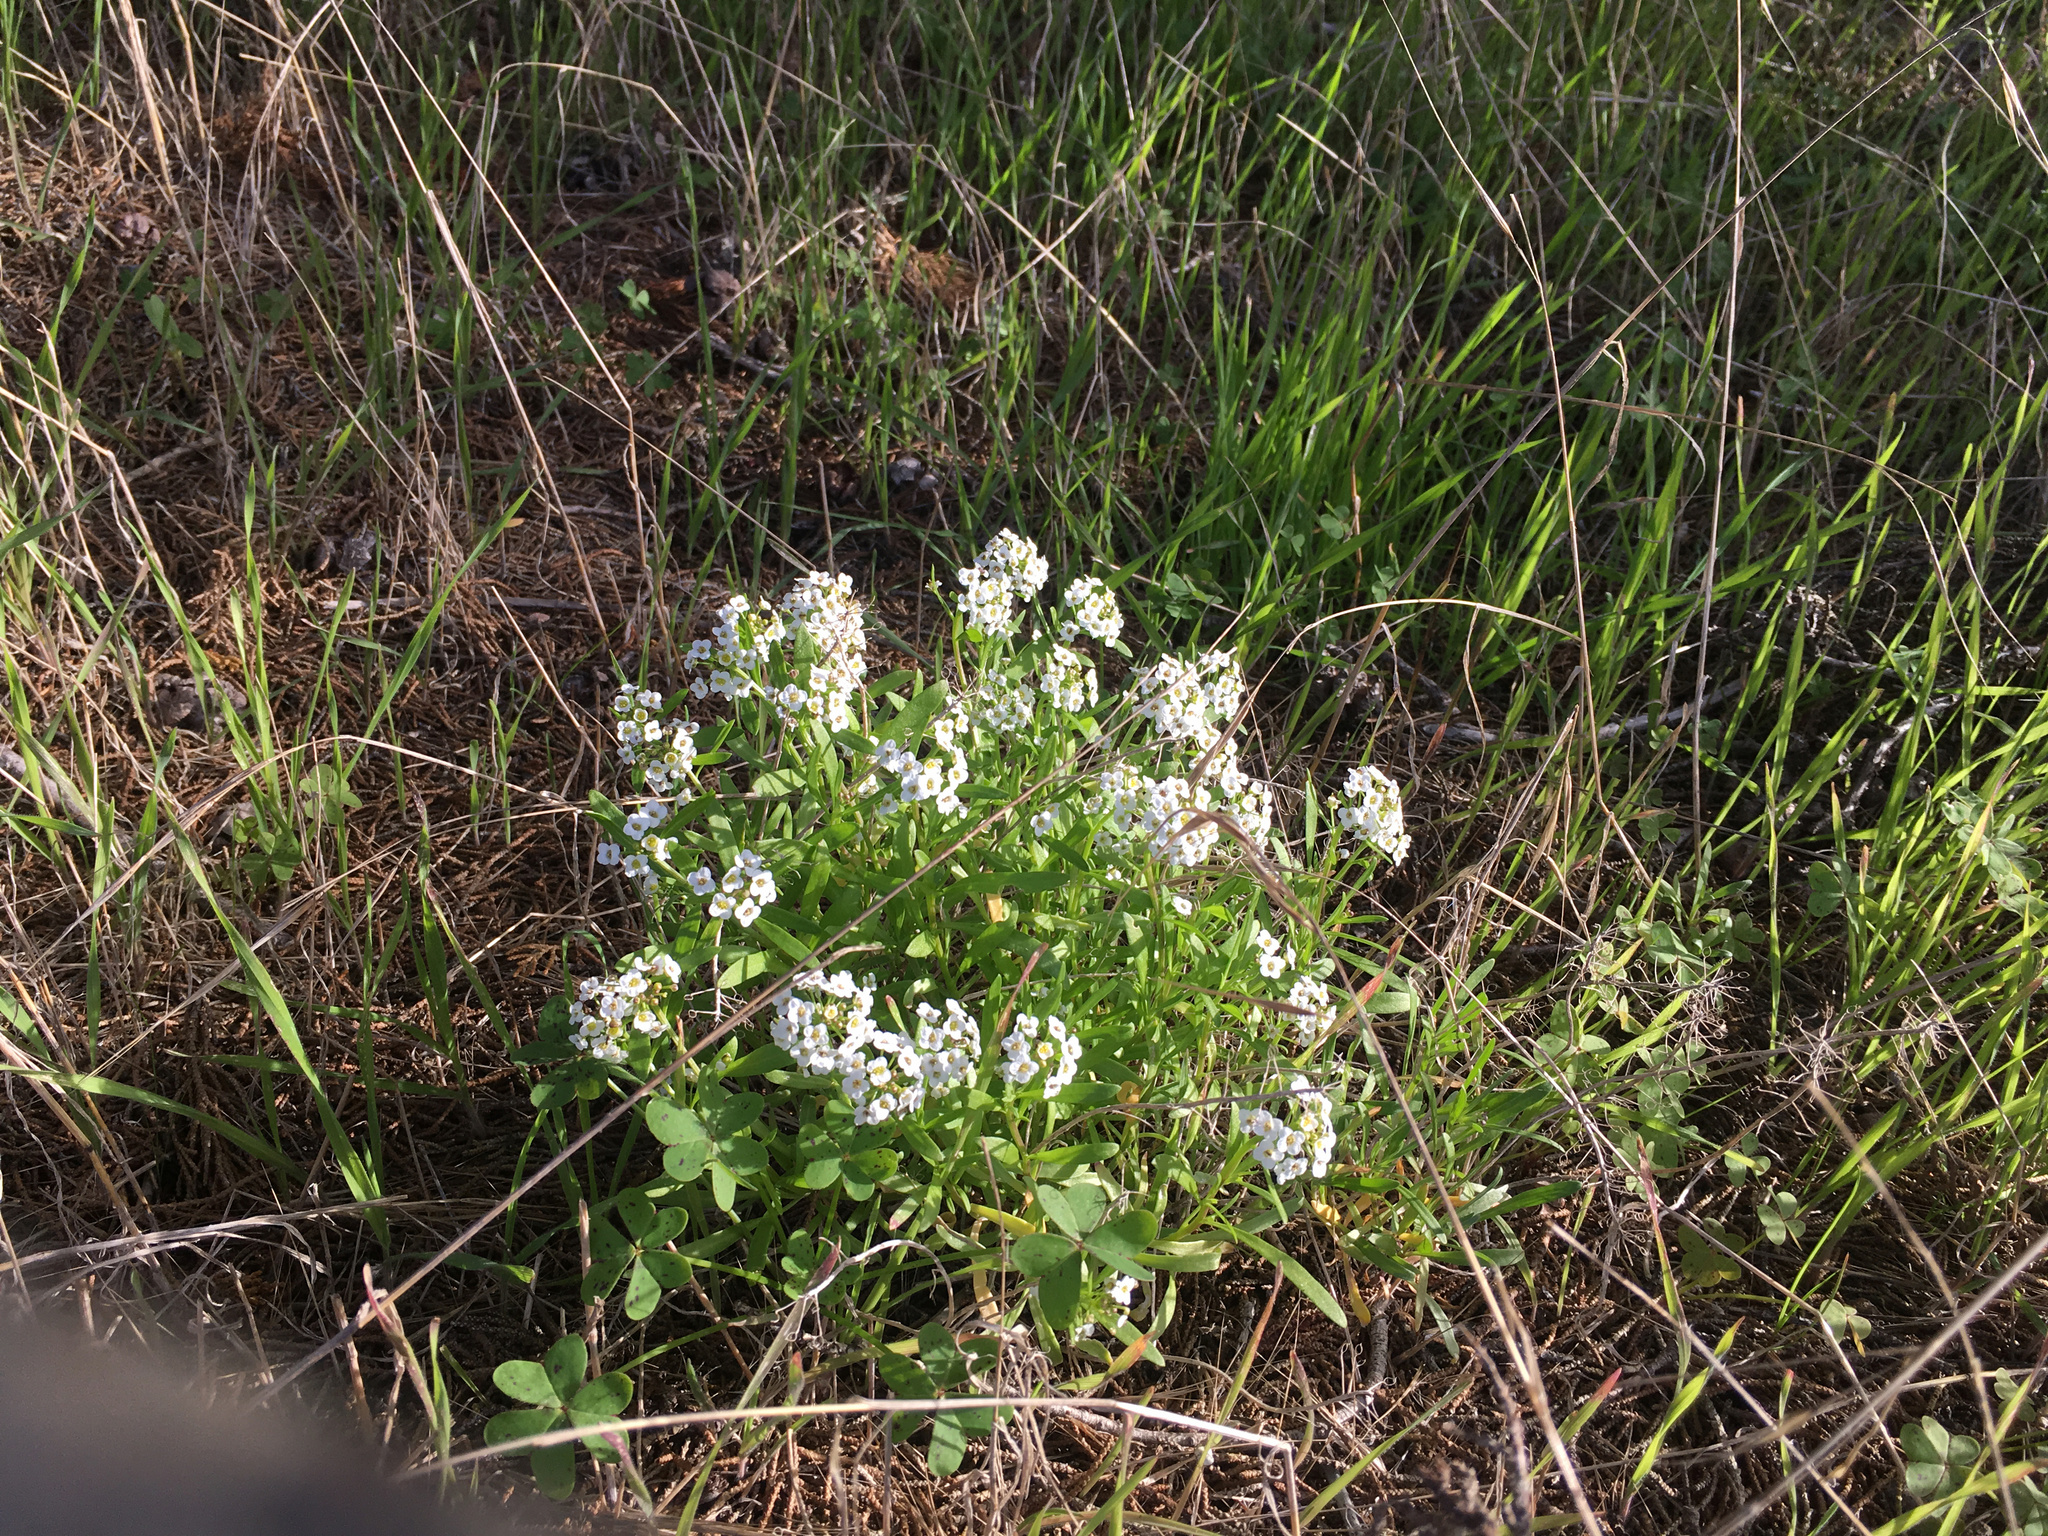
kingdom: Plantae
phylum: Tracheophyta
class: Magnoliopsida
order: Brassicales
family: Brassicaceae
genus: Lobularia
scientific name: Lobularia maritima
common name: Sweet alison
